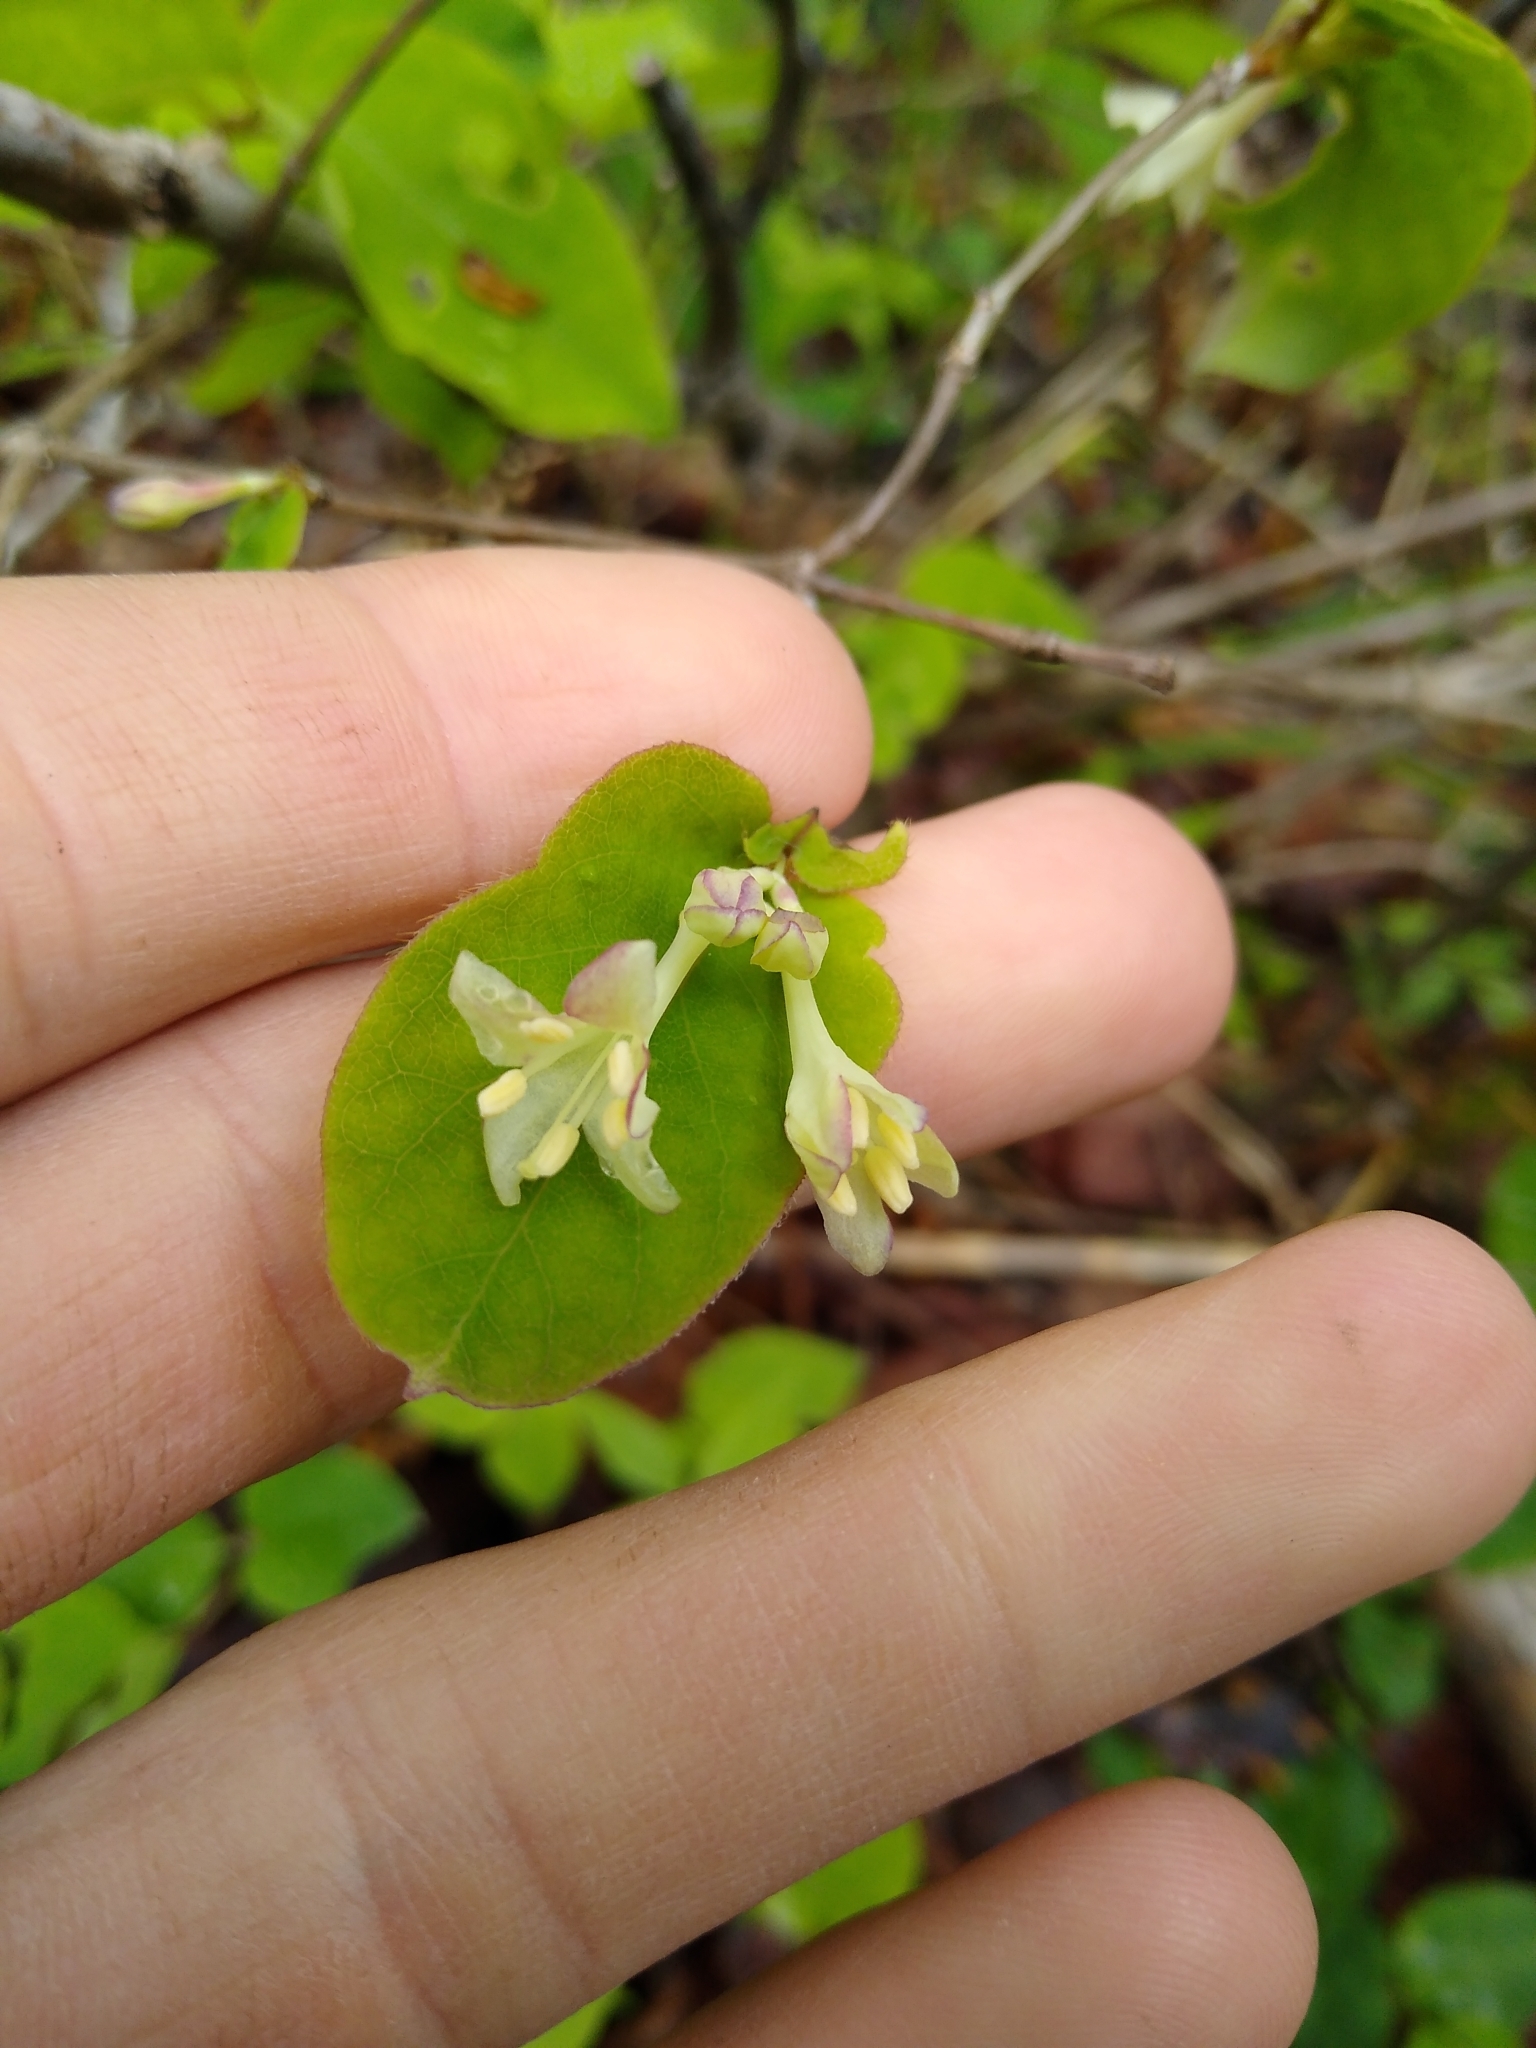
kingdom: Plantae
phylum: Tracheophyta
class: Magnoliopsida
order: Dipsacales
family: Caprifoliaceae
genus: Lonicera
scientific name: Lonicera canadensis
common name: American fly-honeysuckle
